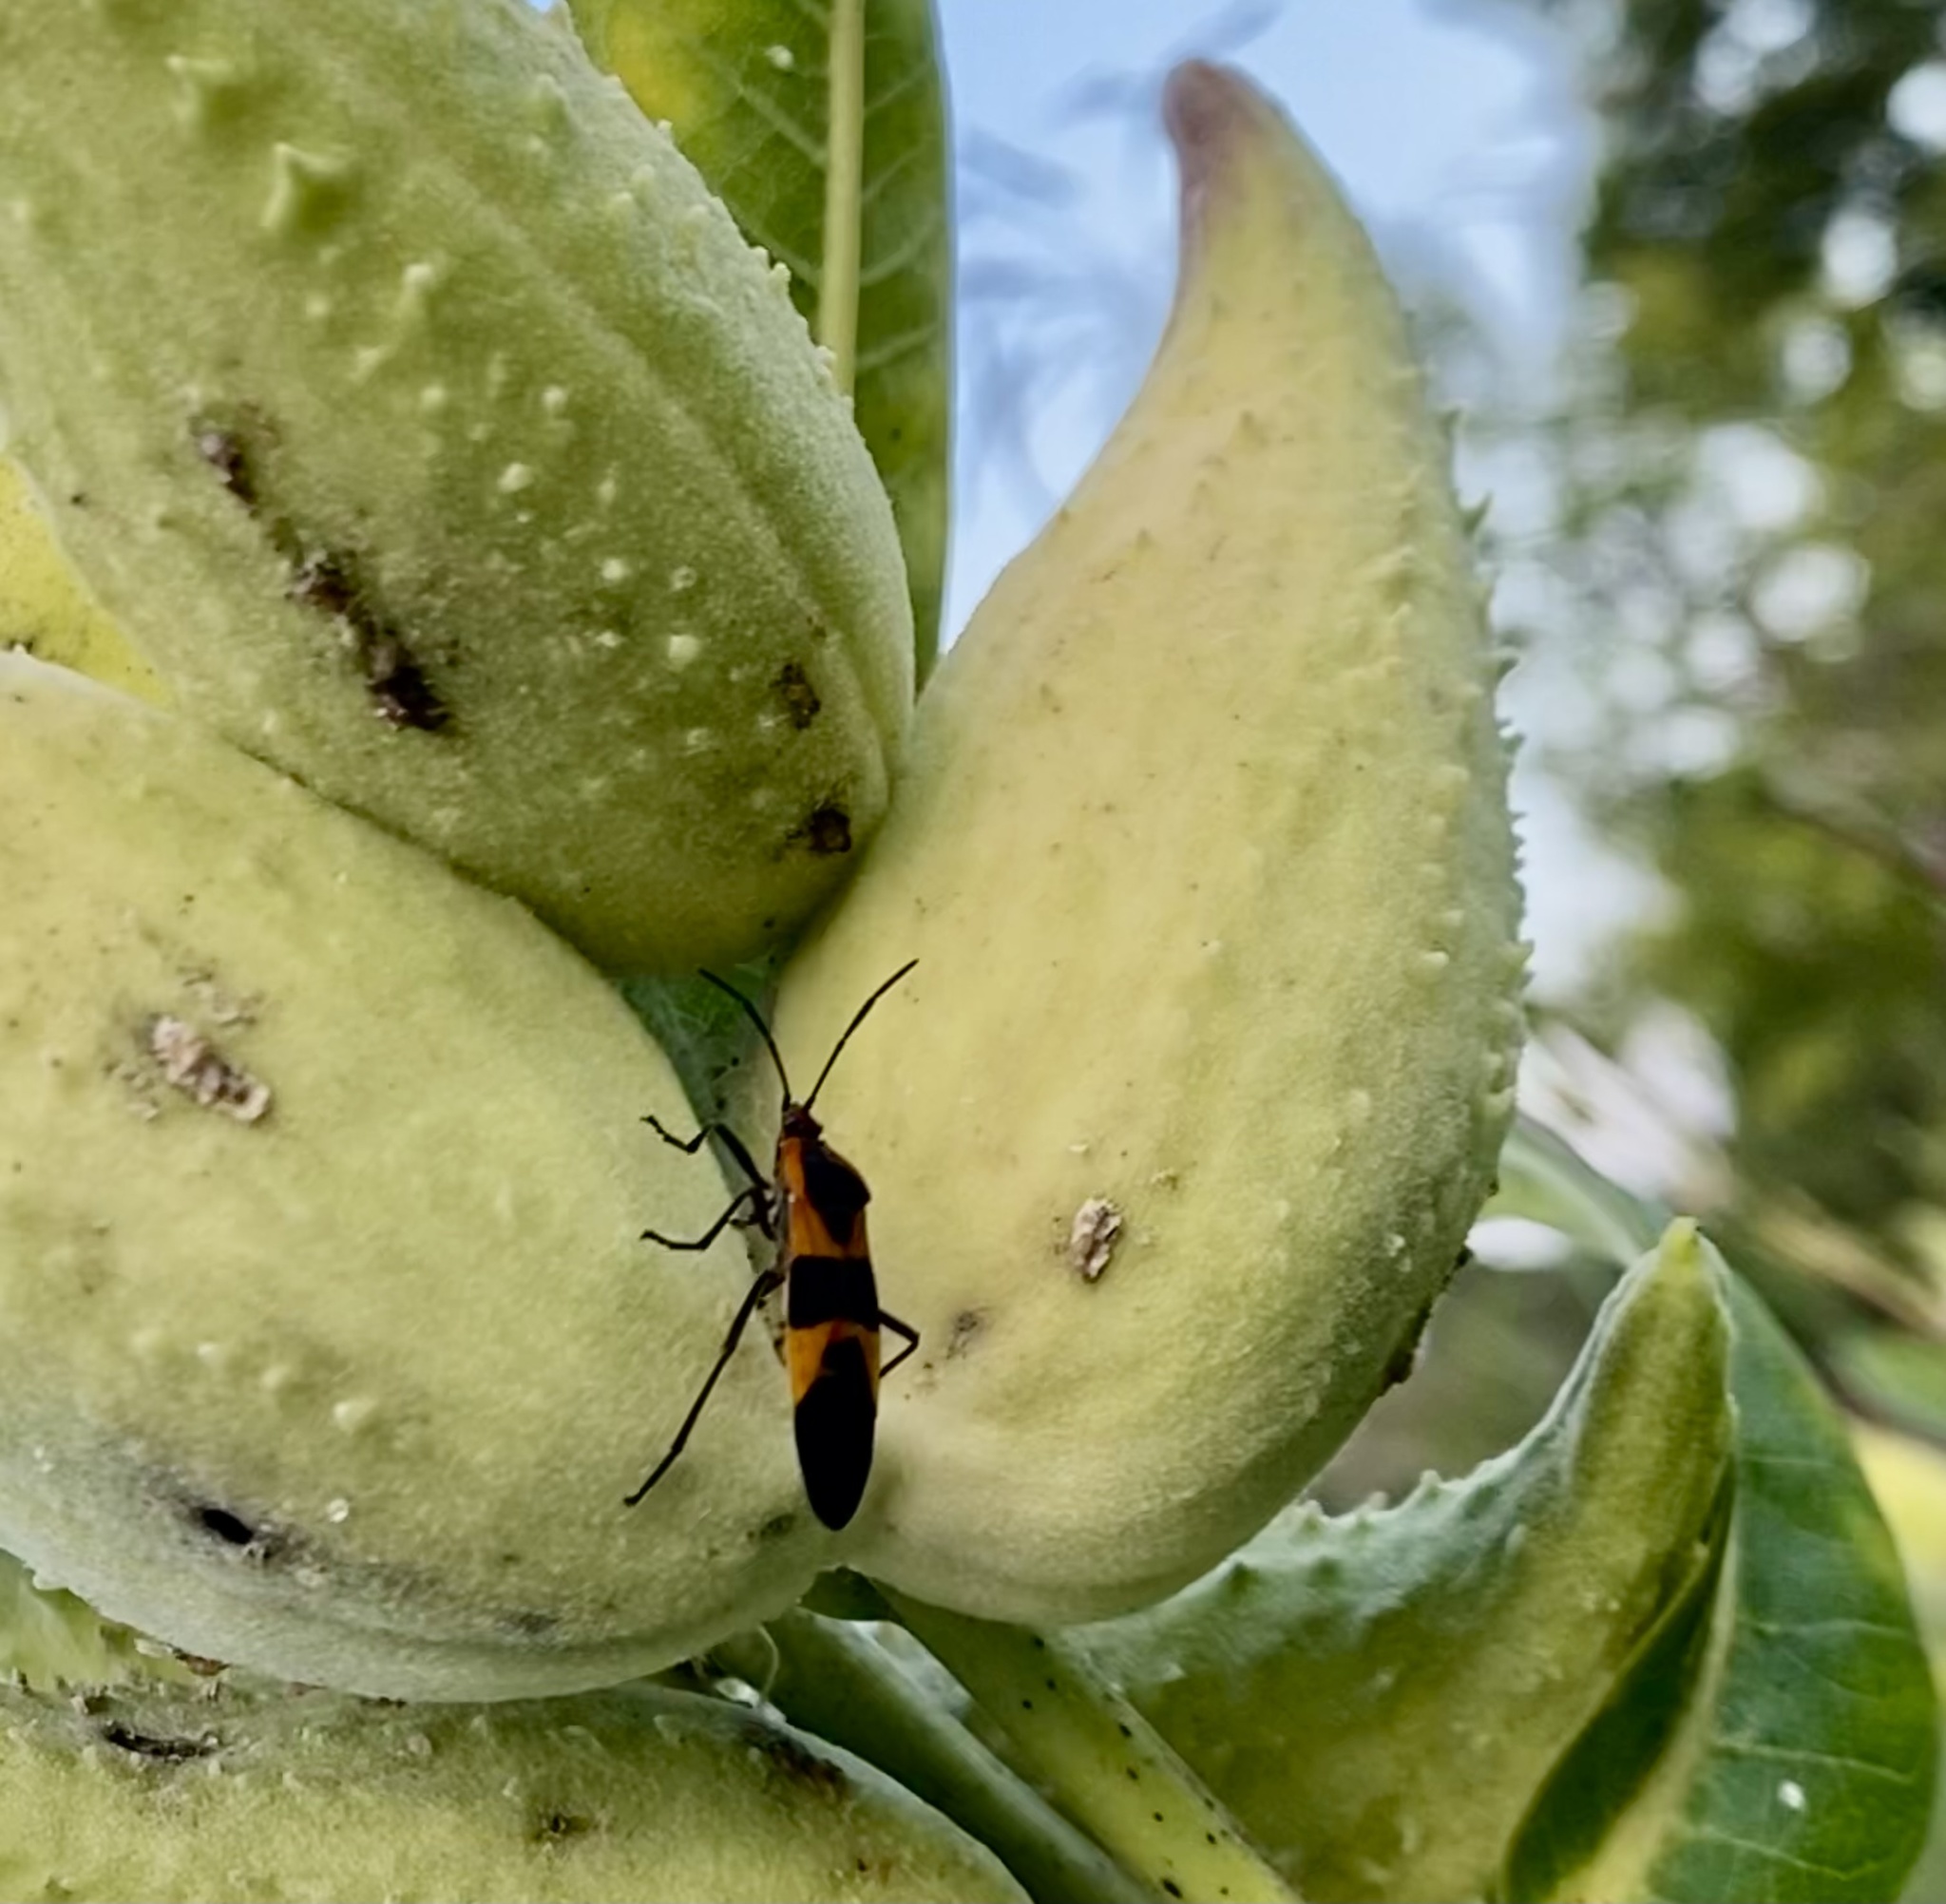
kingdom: Animalia
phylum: Arthropoda
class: Insecta
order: Hemiptera
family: Lygaeidae
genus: Oncopeltus
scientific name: Oncopeltus fasciatus
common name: Large milkweed bug
